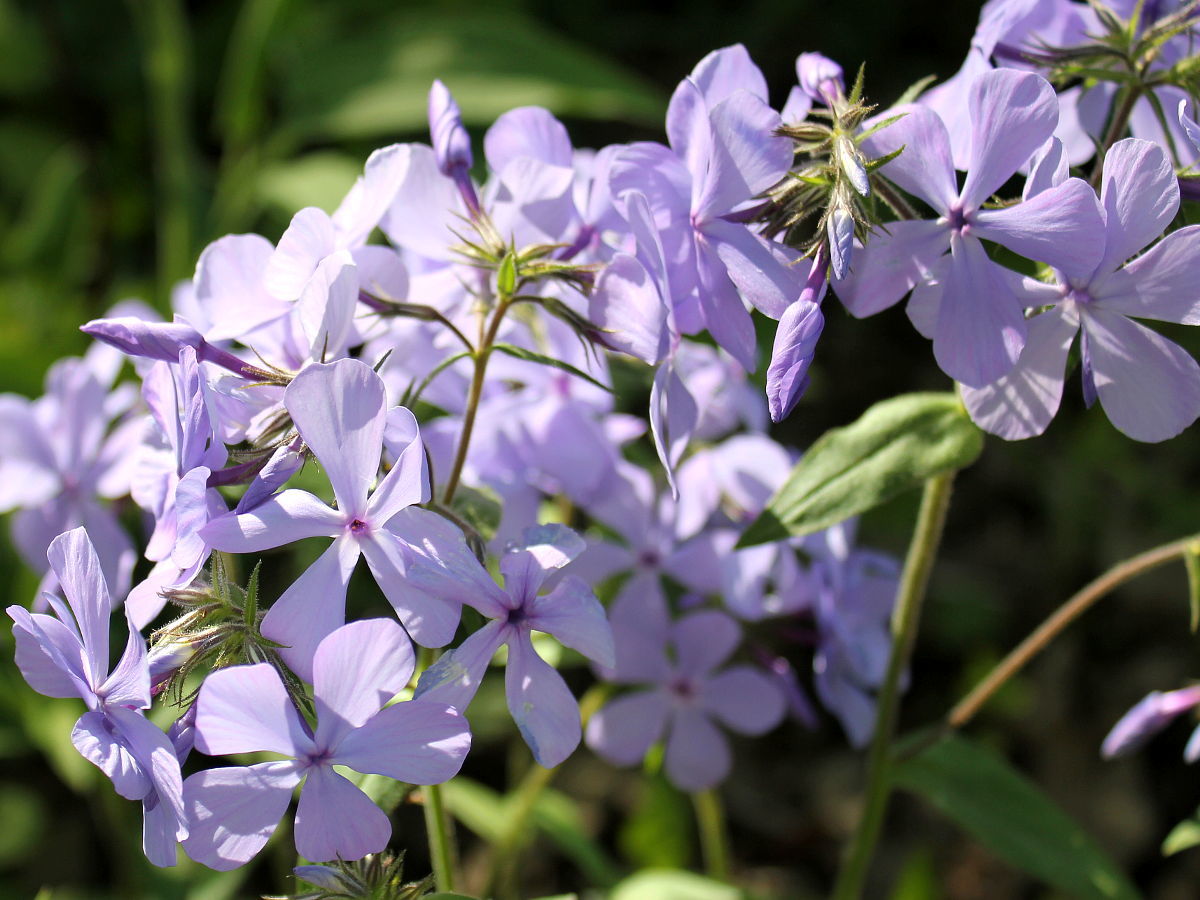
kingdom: Plantae
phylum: Tracheophyta
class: Magnoliopsida
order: Ericales
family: Polemoniaceae
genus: Phlox
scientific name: Phlox divaricata
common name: Blue phlox
